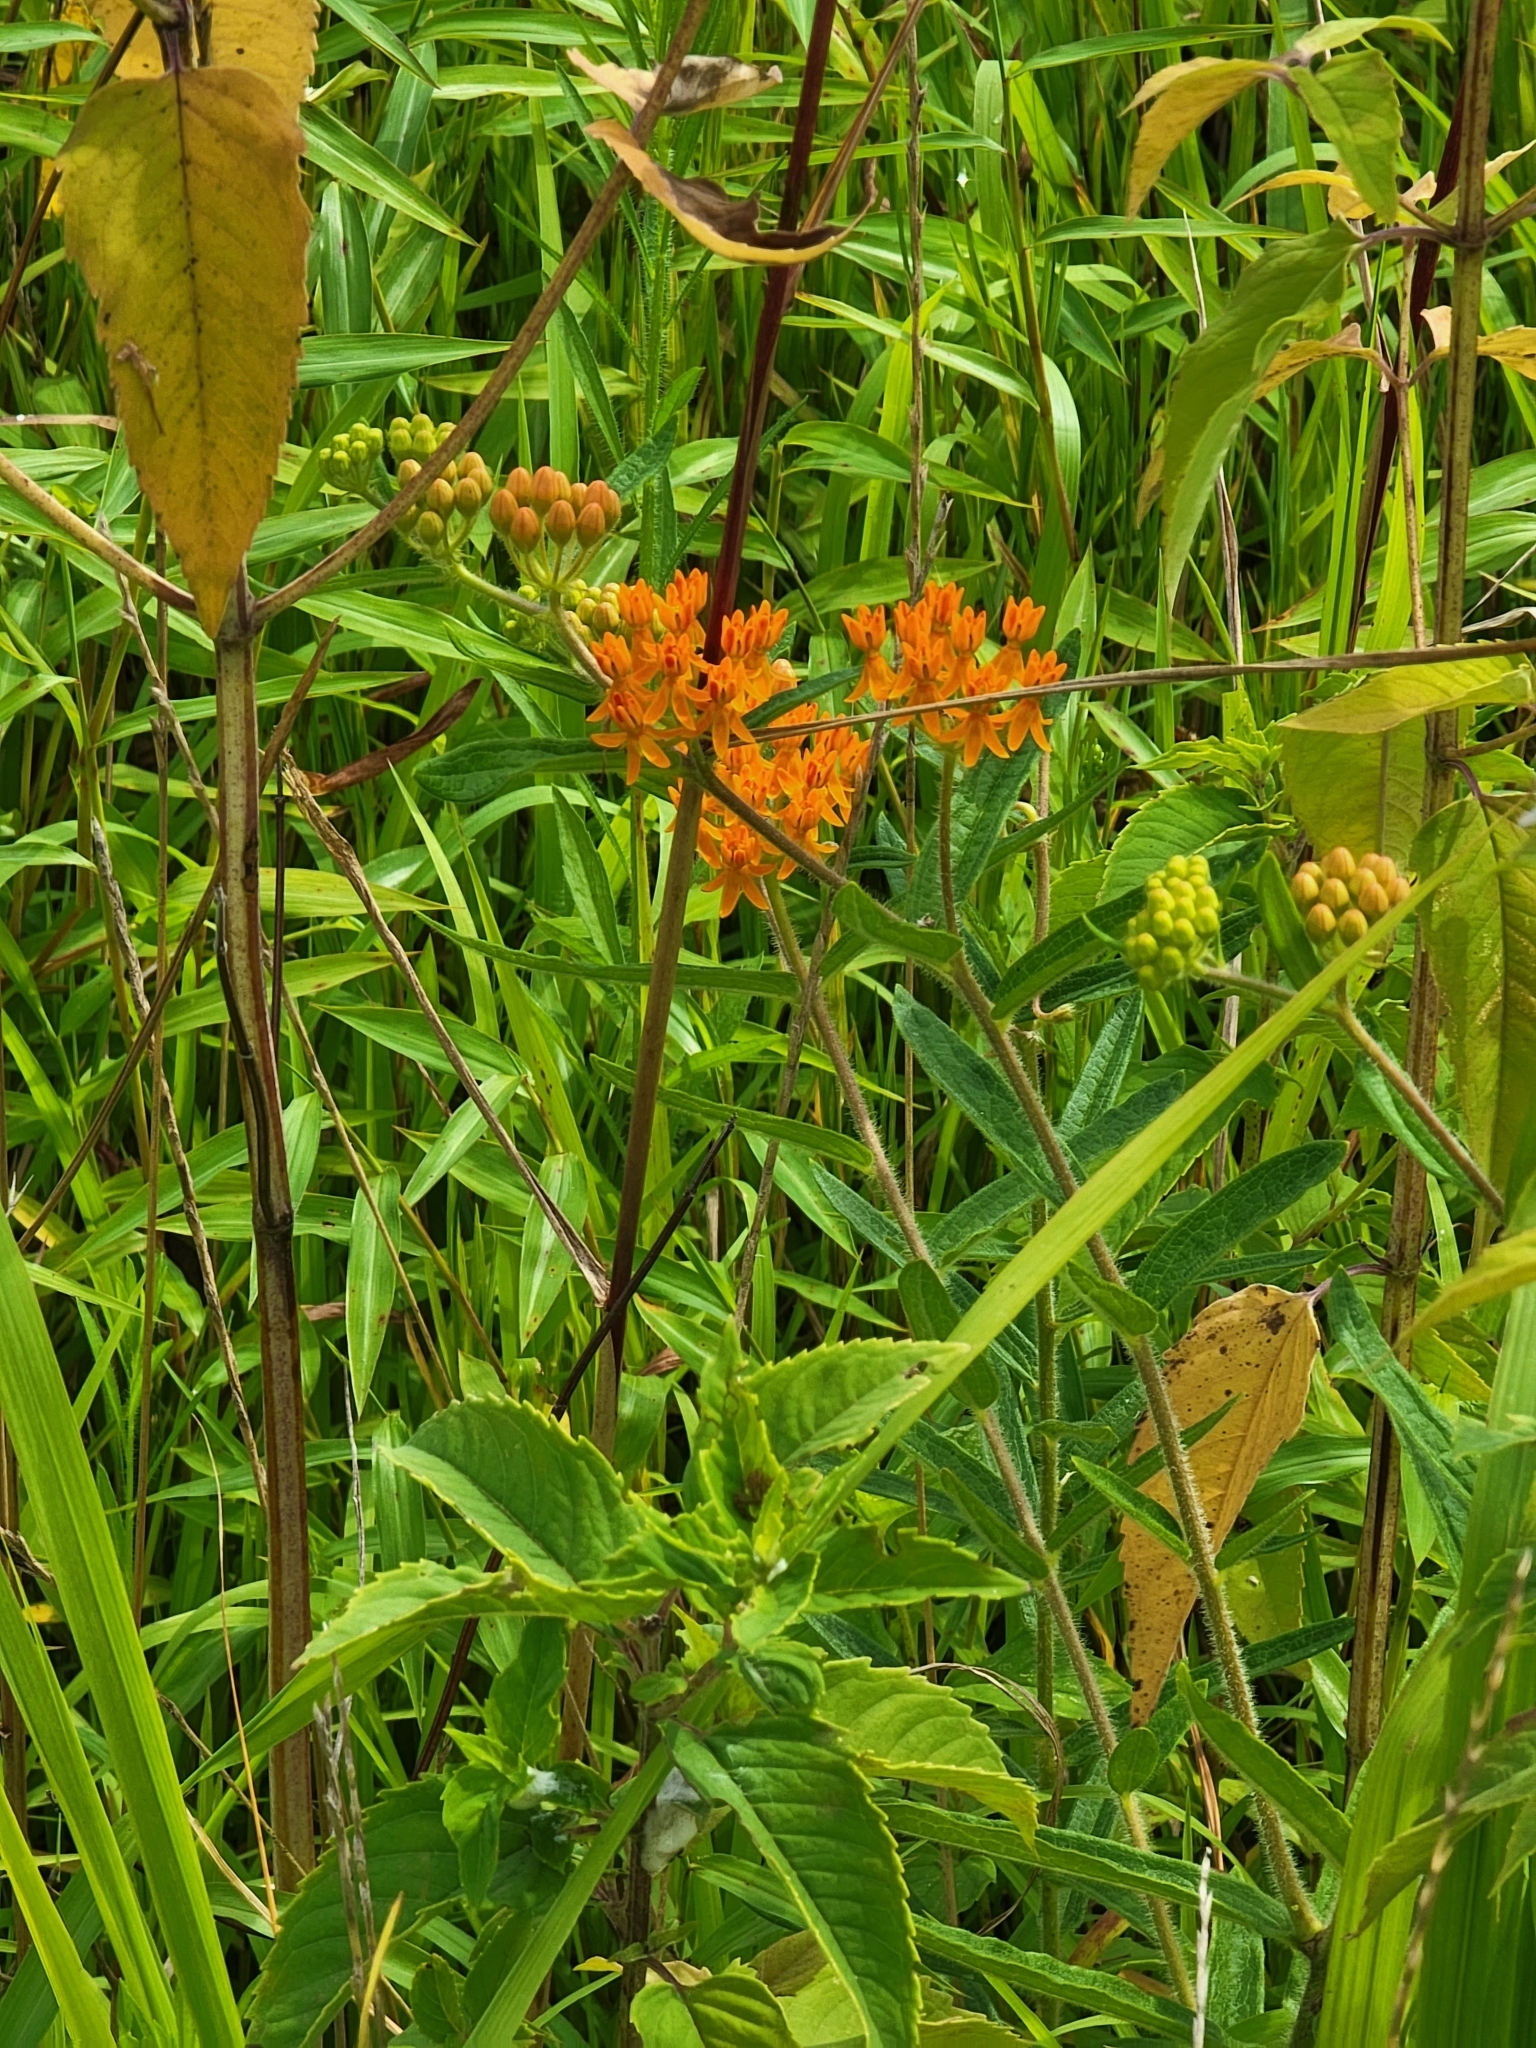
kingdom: Plantae
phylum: Tracheophyta
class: Magnoliopsida
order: Gentianales
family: Apocynaceae
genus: Asclepias
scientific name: Asclepias tuberosa
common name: Butterfly milkweed
